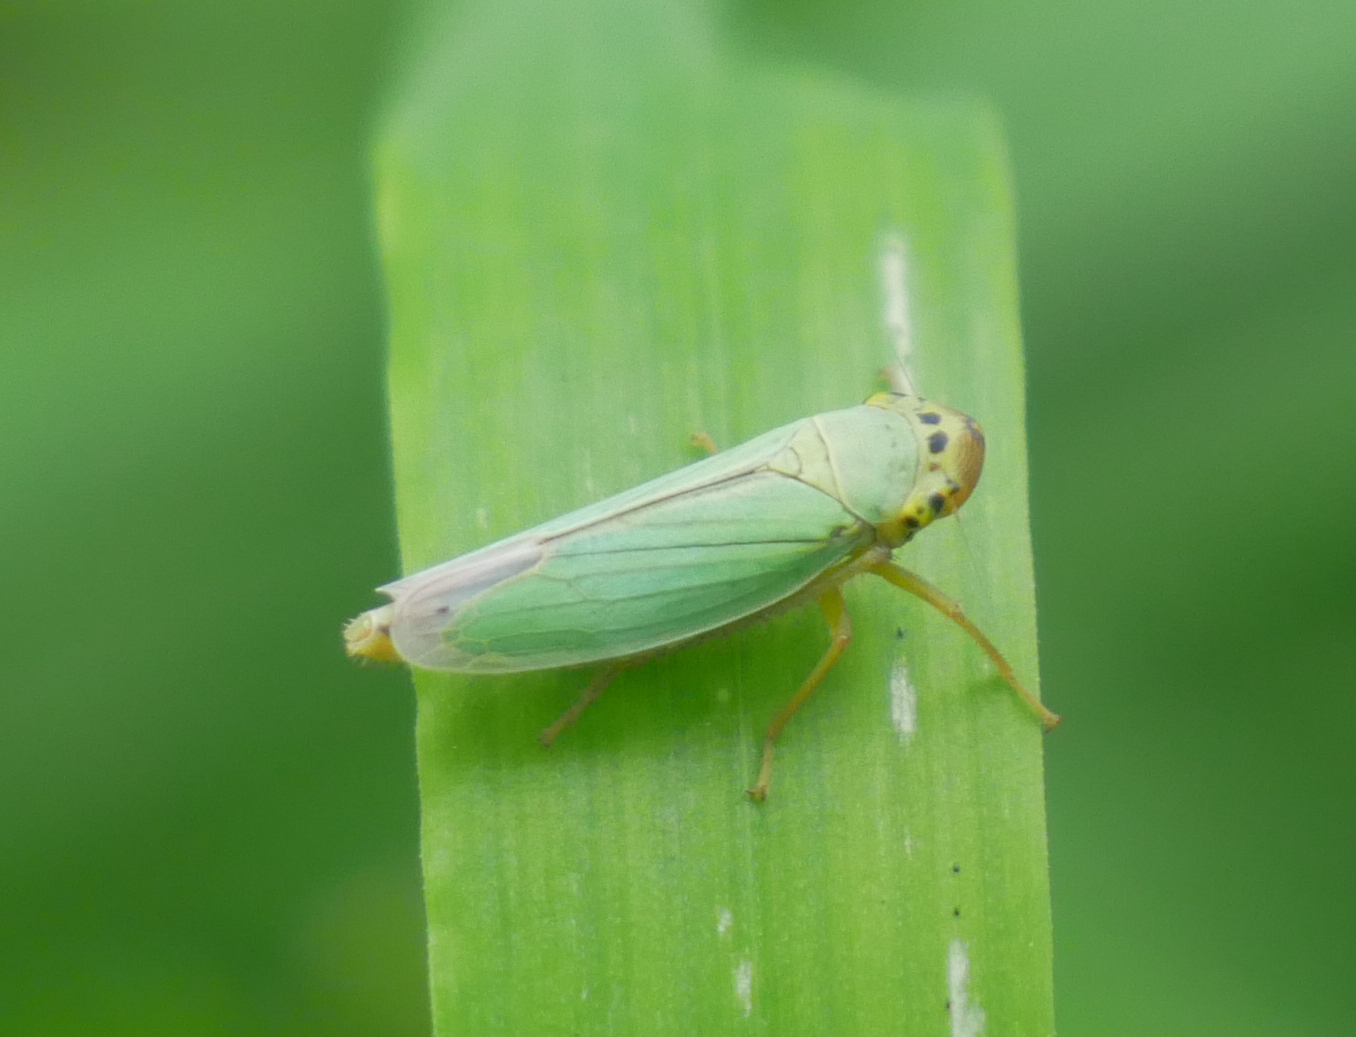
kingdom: Animalia
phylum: Arthropoda
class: Insecta
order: Hemiptera
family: Cicadellidae
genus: Cicadella
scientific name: Cicadella viridis
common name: Leafhopper
